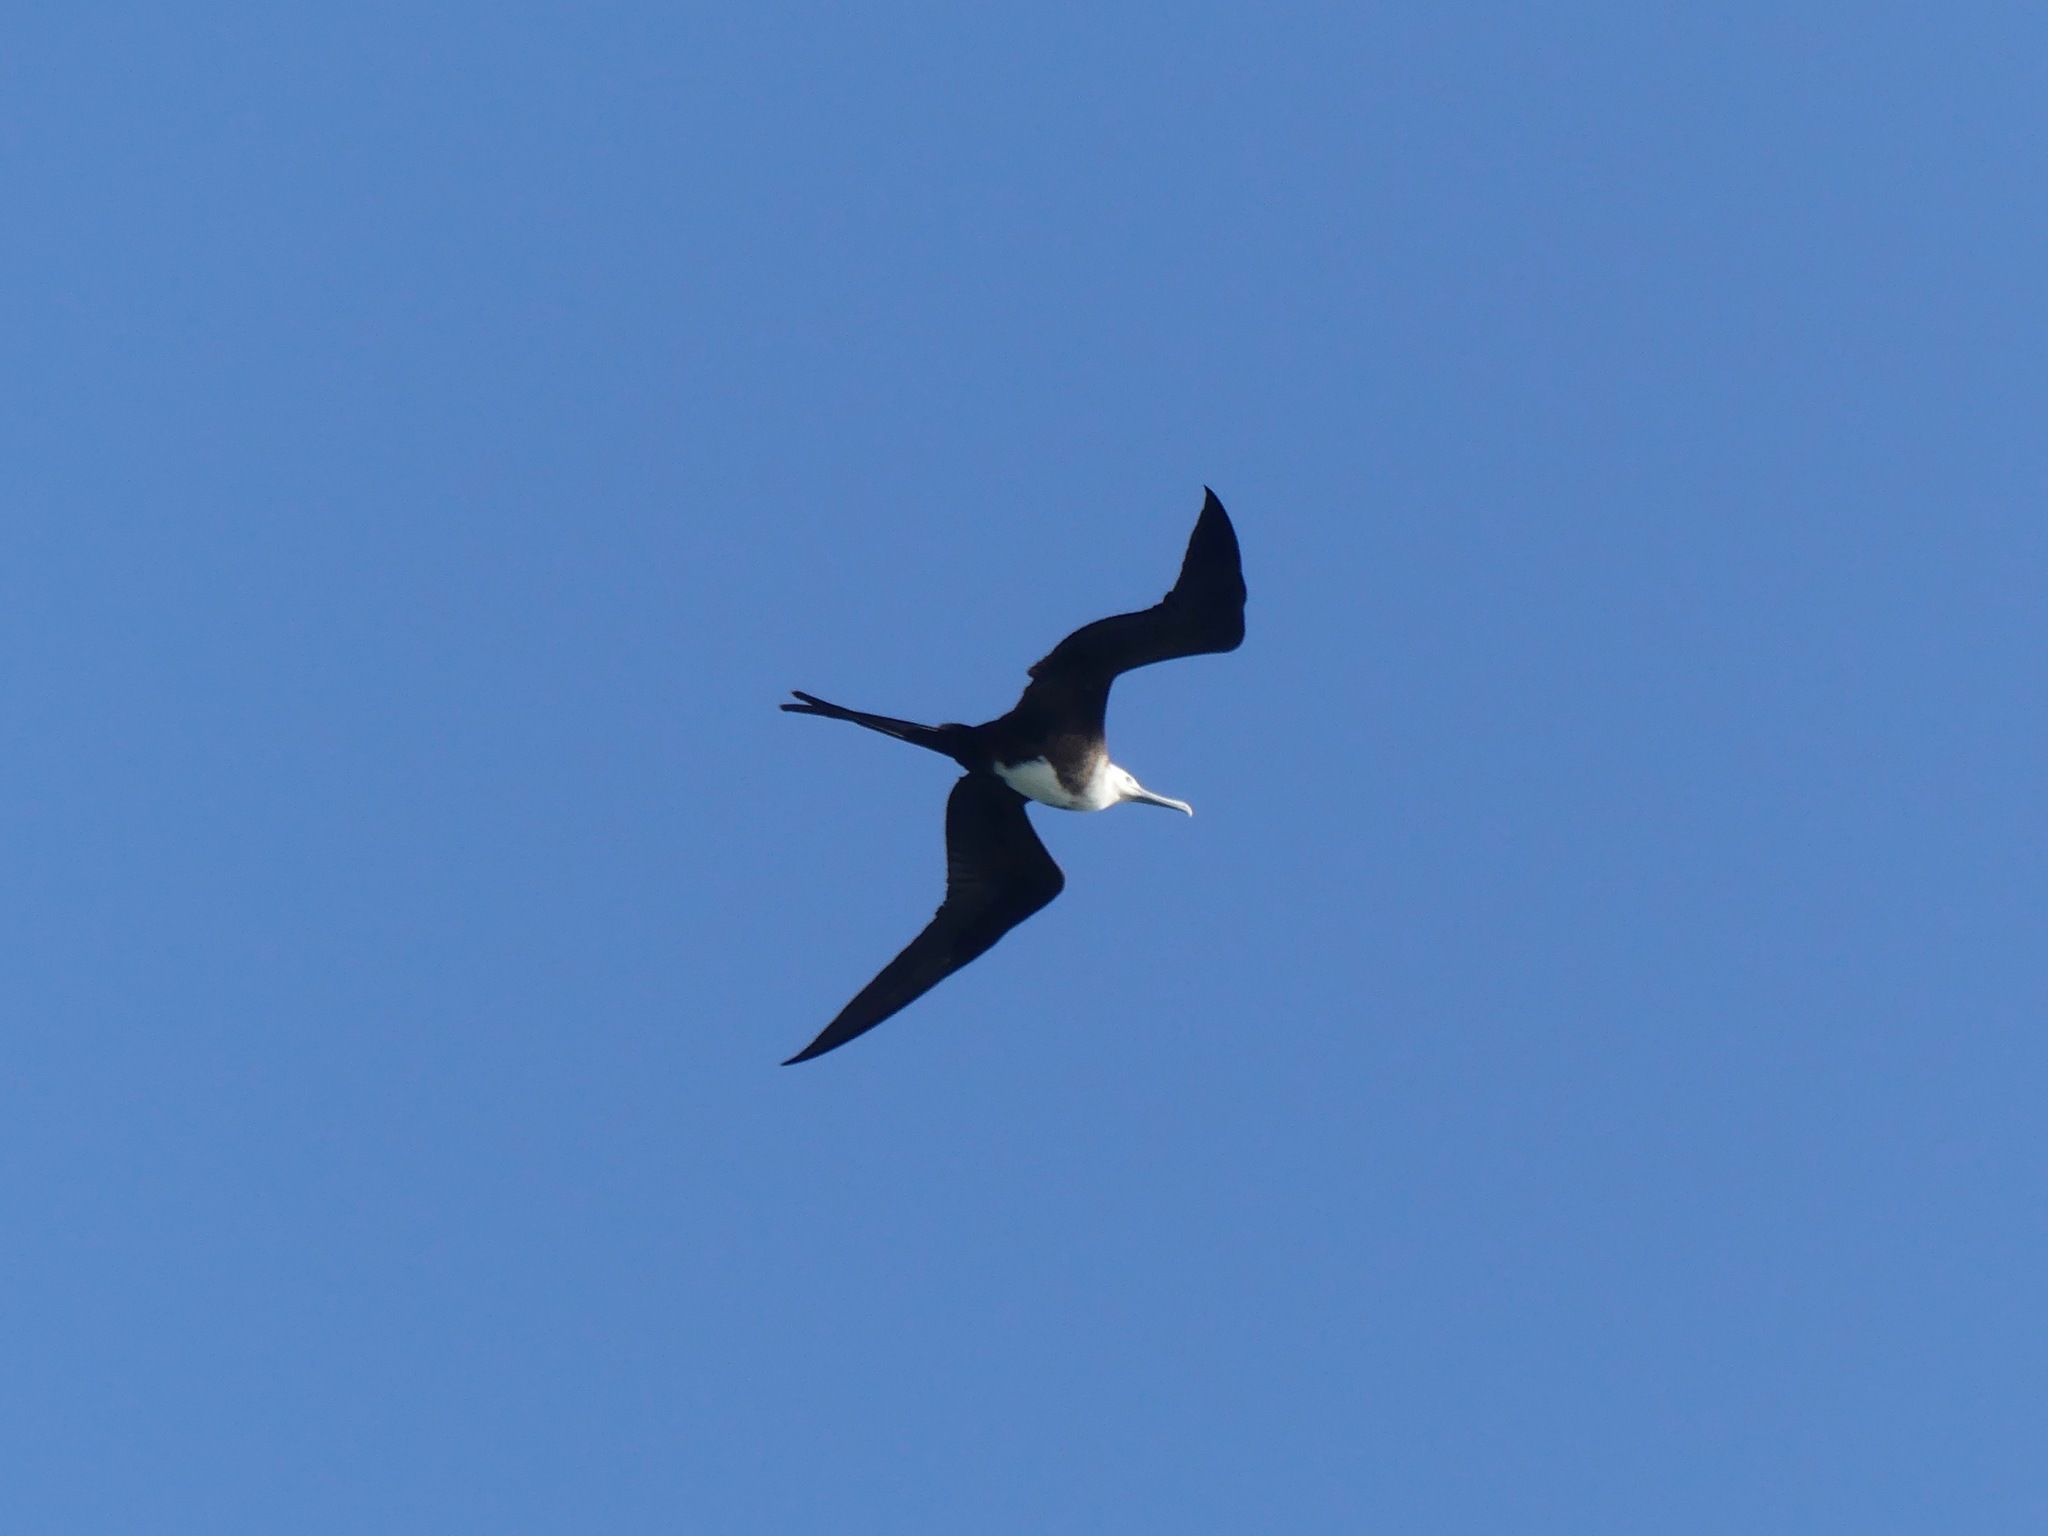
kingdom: Animalia
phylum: Chordata
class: Aves
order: Suliformes
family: Fregatidae
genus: Fregata
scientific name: Fregata magnificens
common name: Magnificent frigatebird
